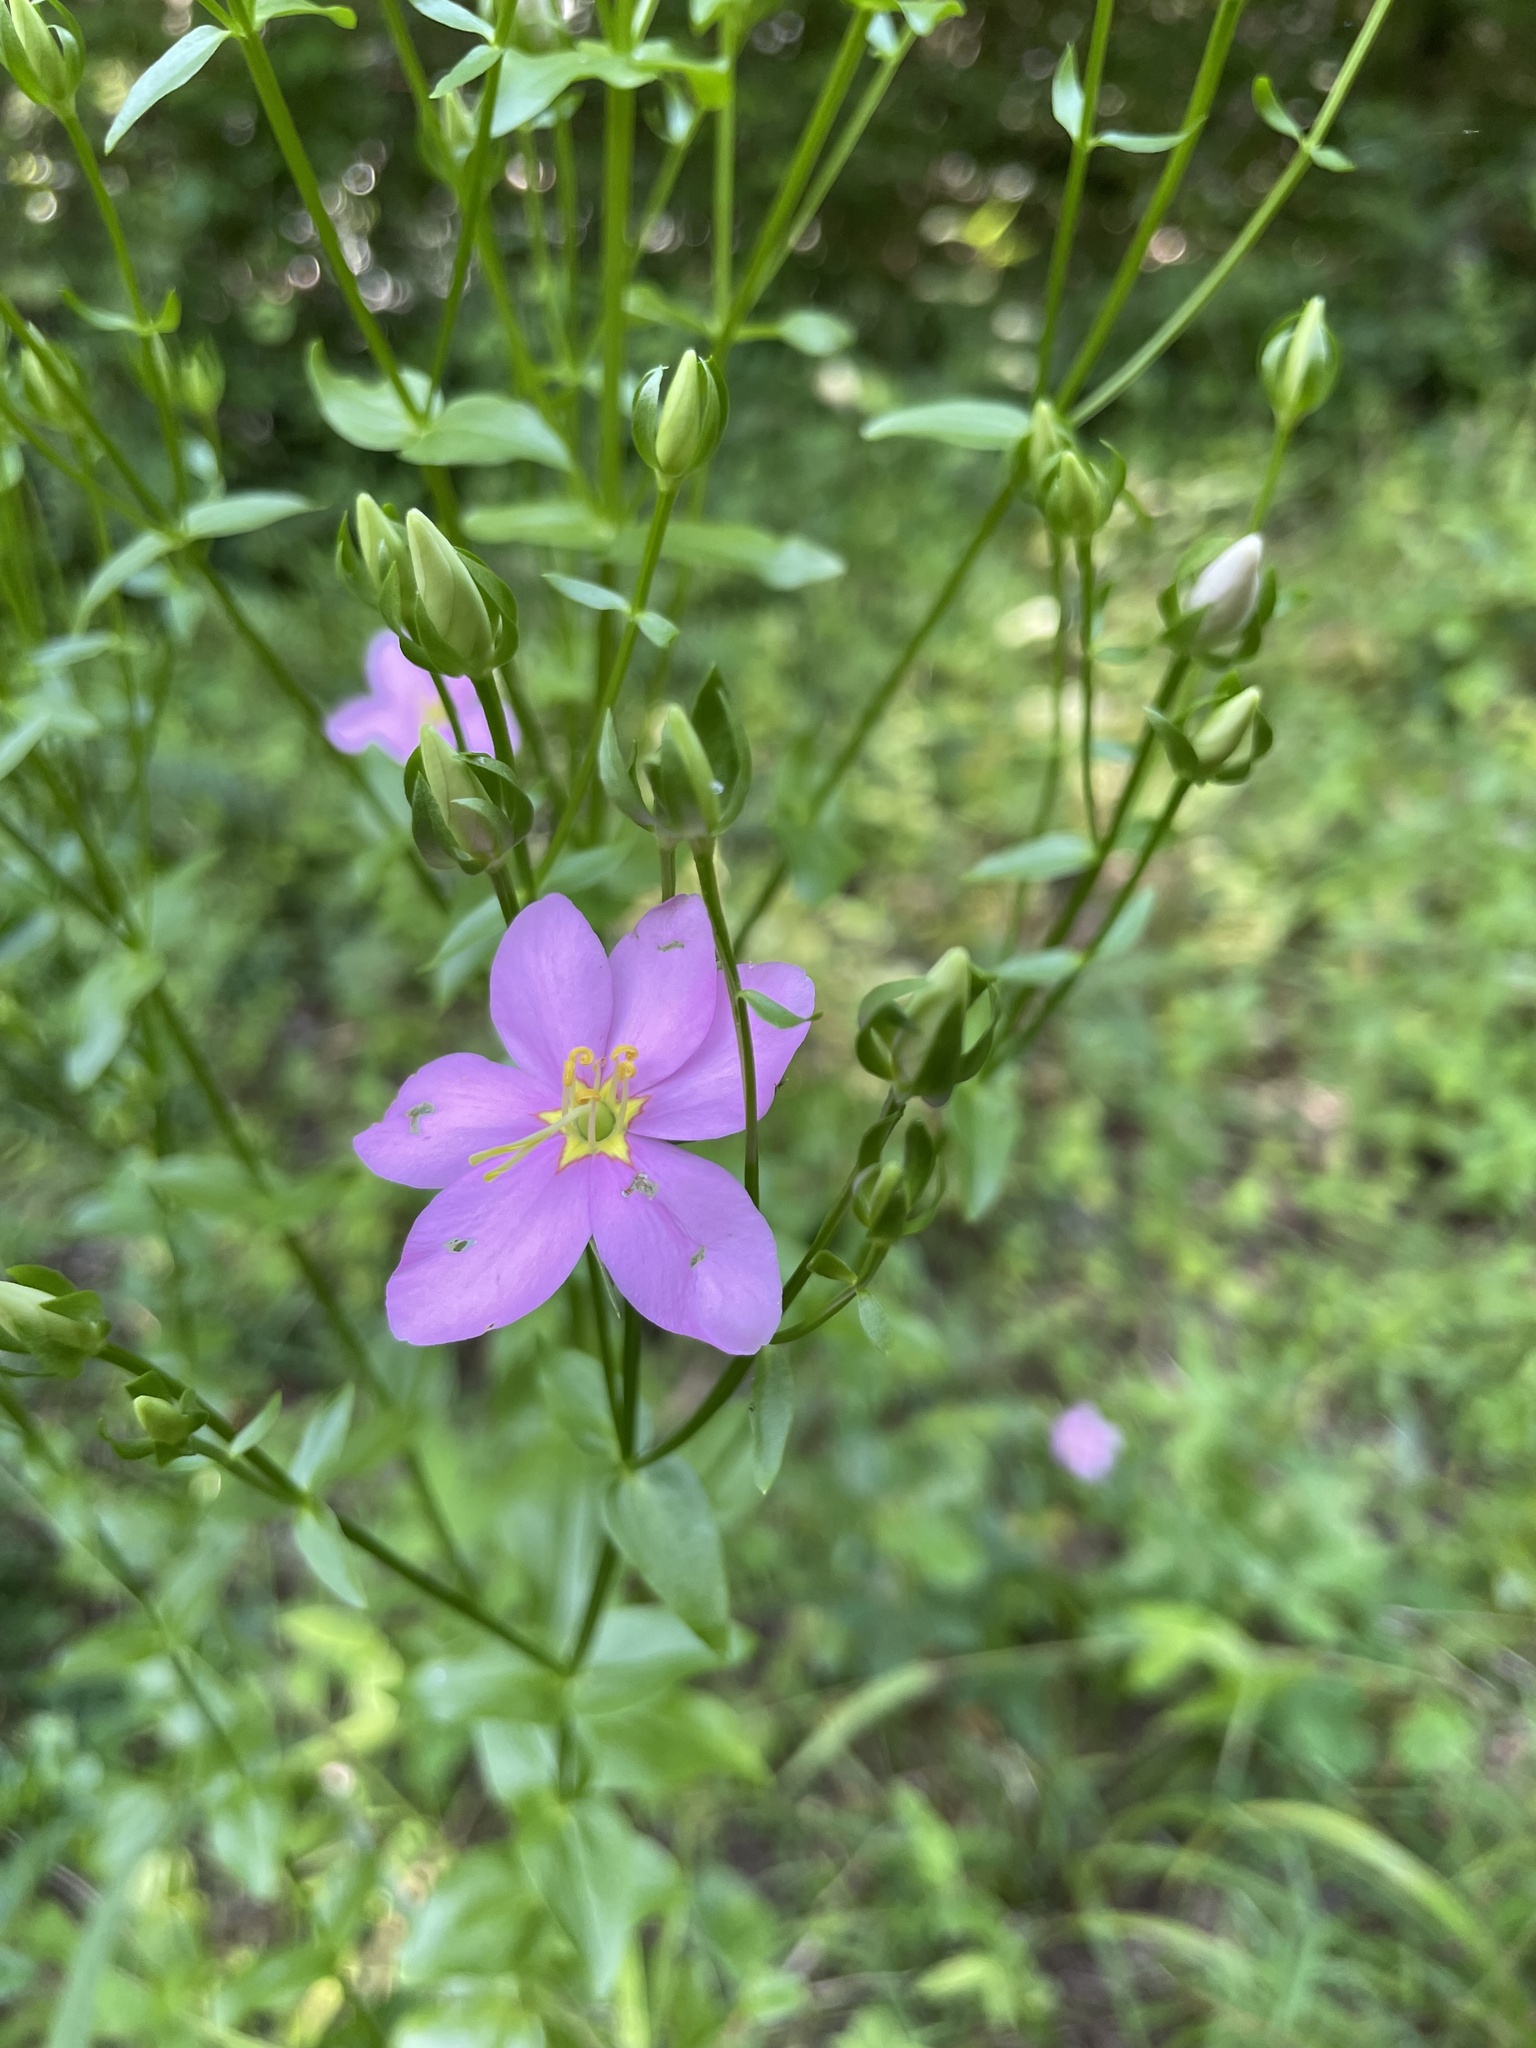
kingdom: Plantae
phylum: Tracheophyta
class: Magnoliopsida
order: Gentianales
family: Gentianaceae
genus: Sabatia
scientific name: Sabatia angularis
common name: Rose-pink
